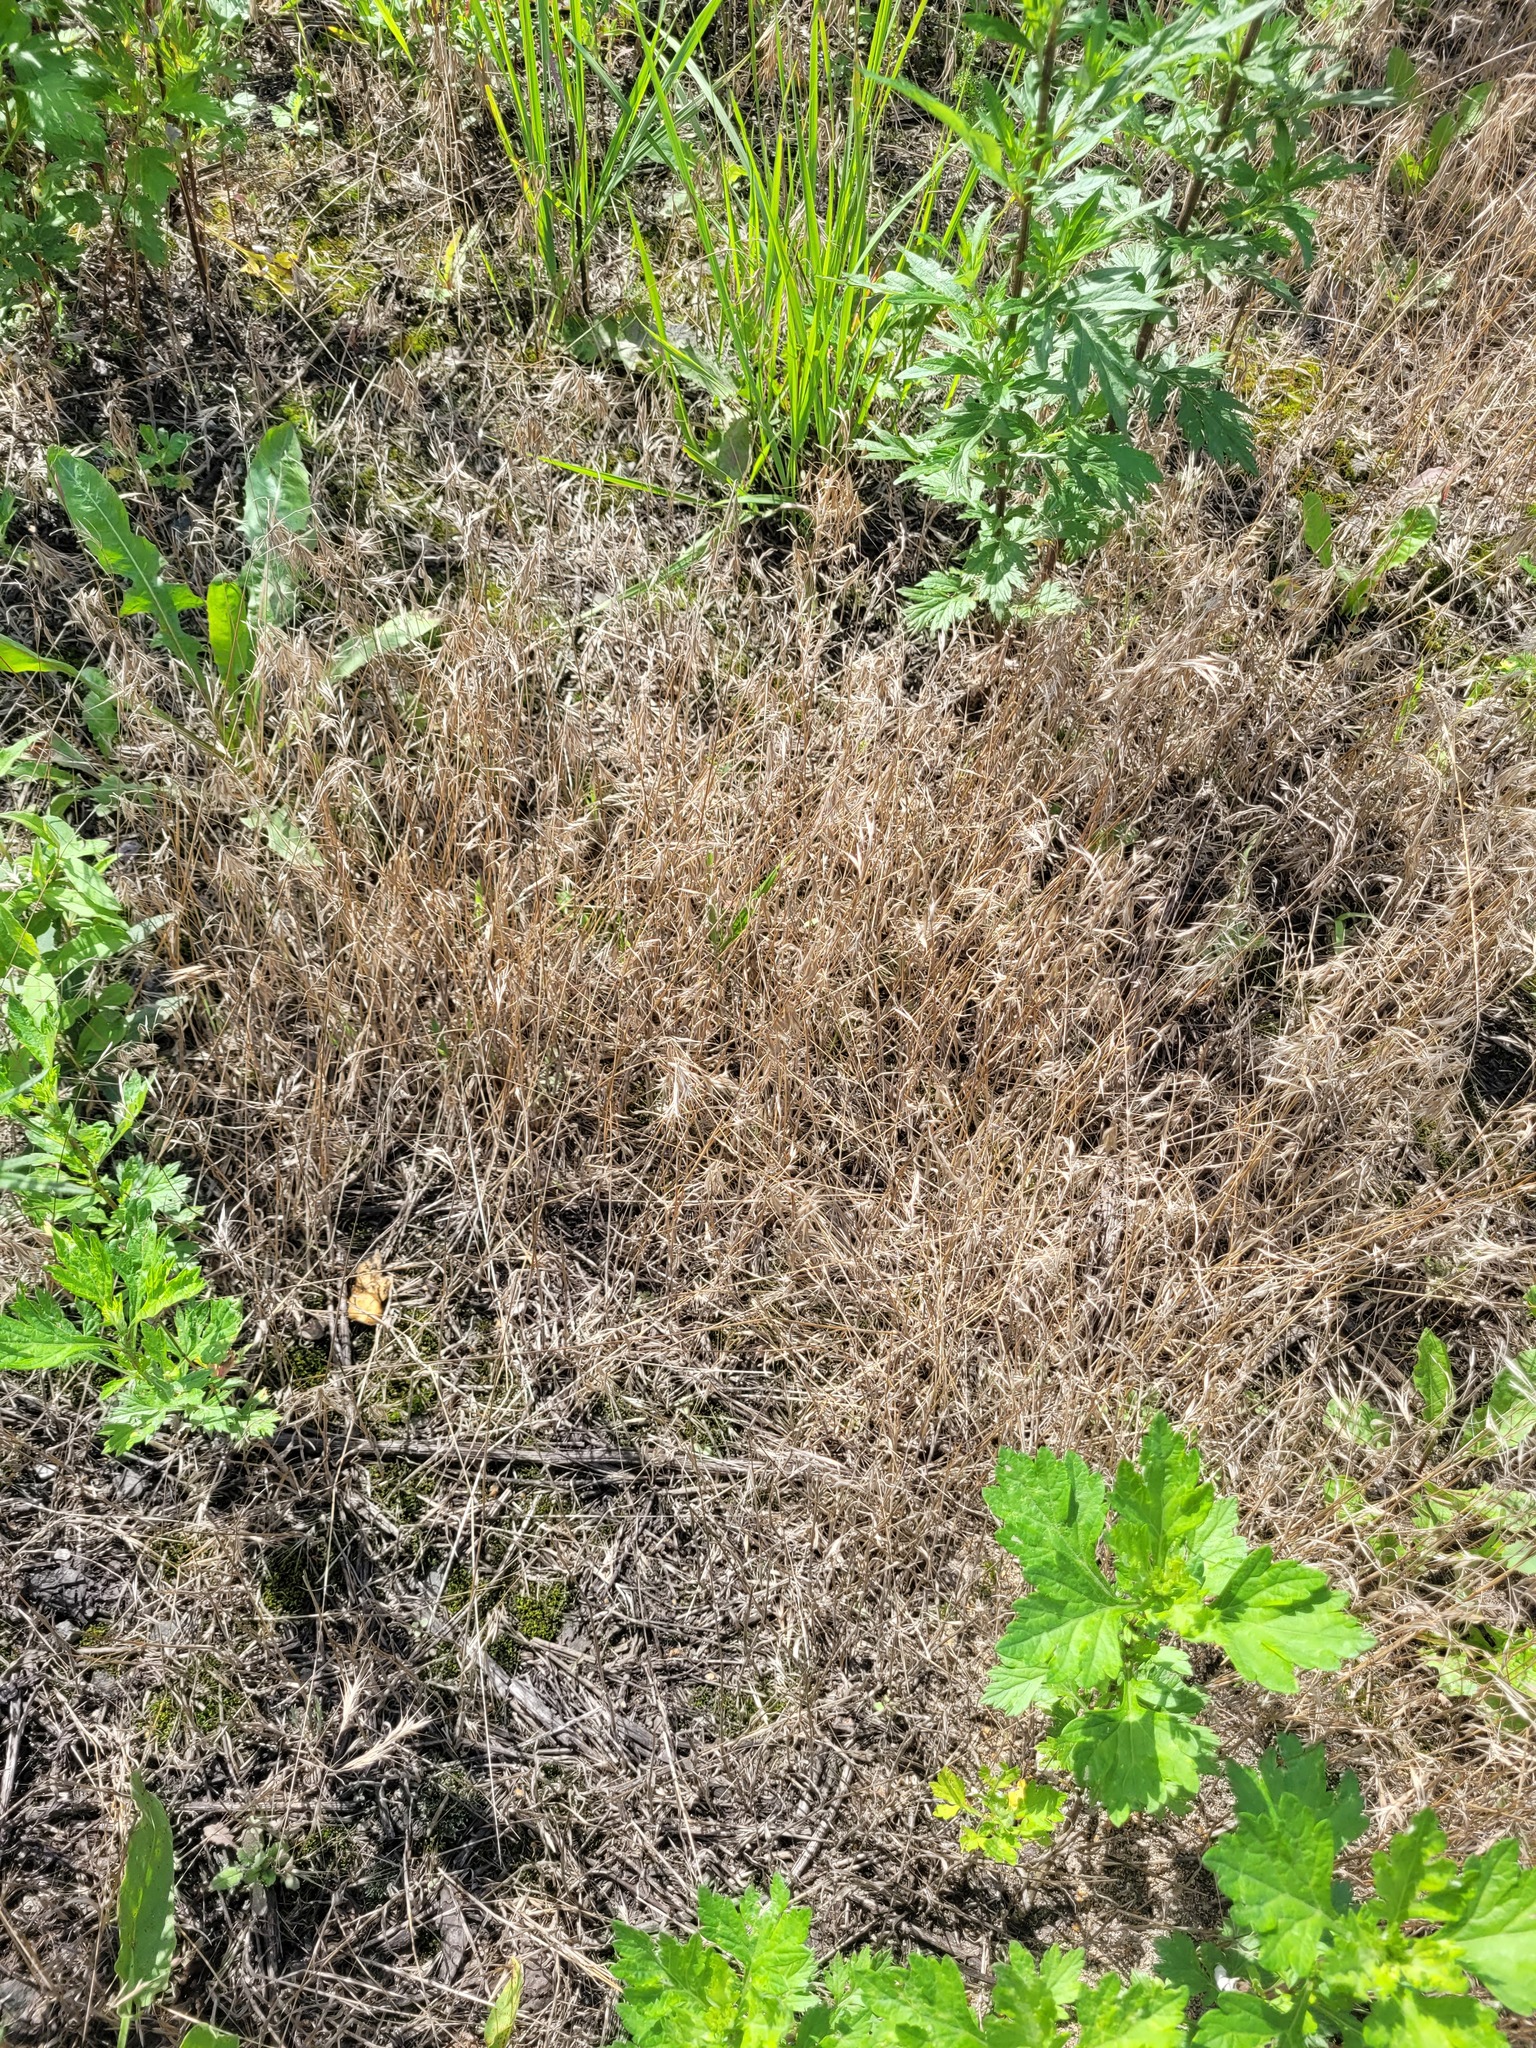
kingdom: Plantae
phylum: Tracheophyta
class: Liliopsida
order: Poales
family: Poaceae
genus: Bromus
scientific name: Bromus tectorum
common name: Cheatgrass
